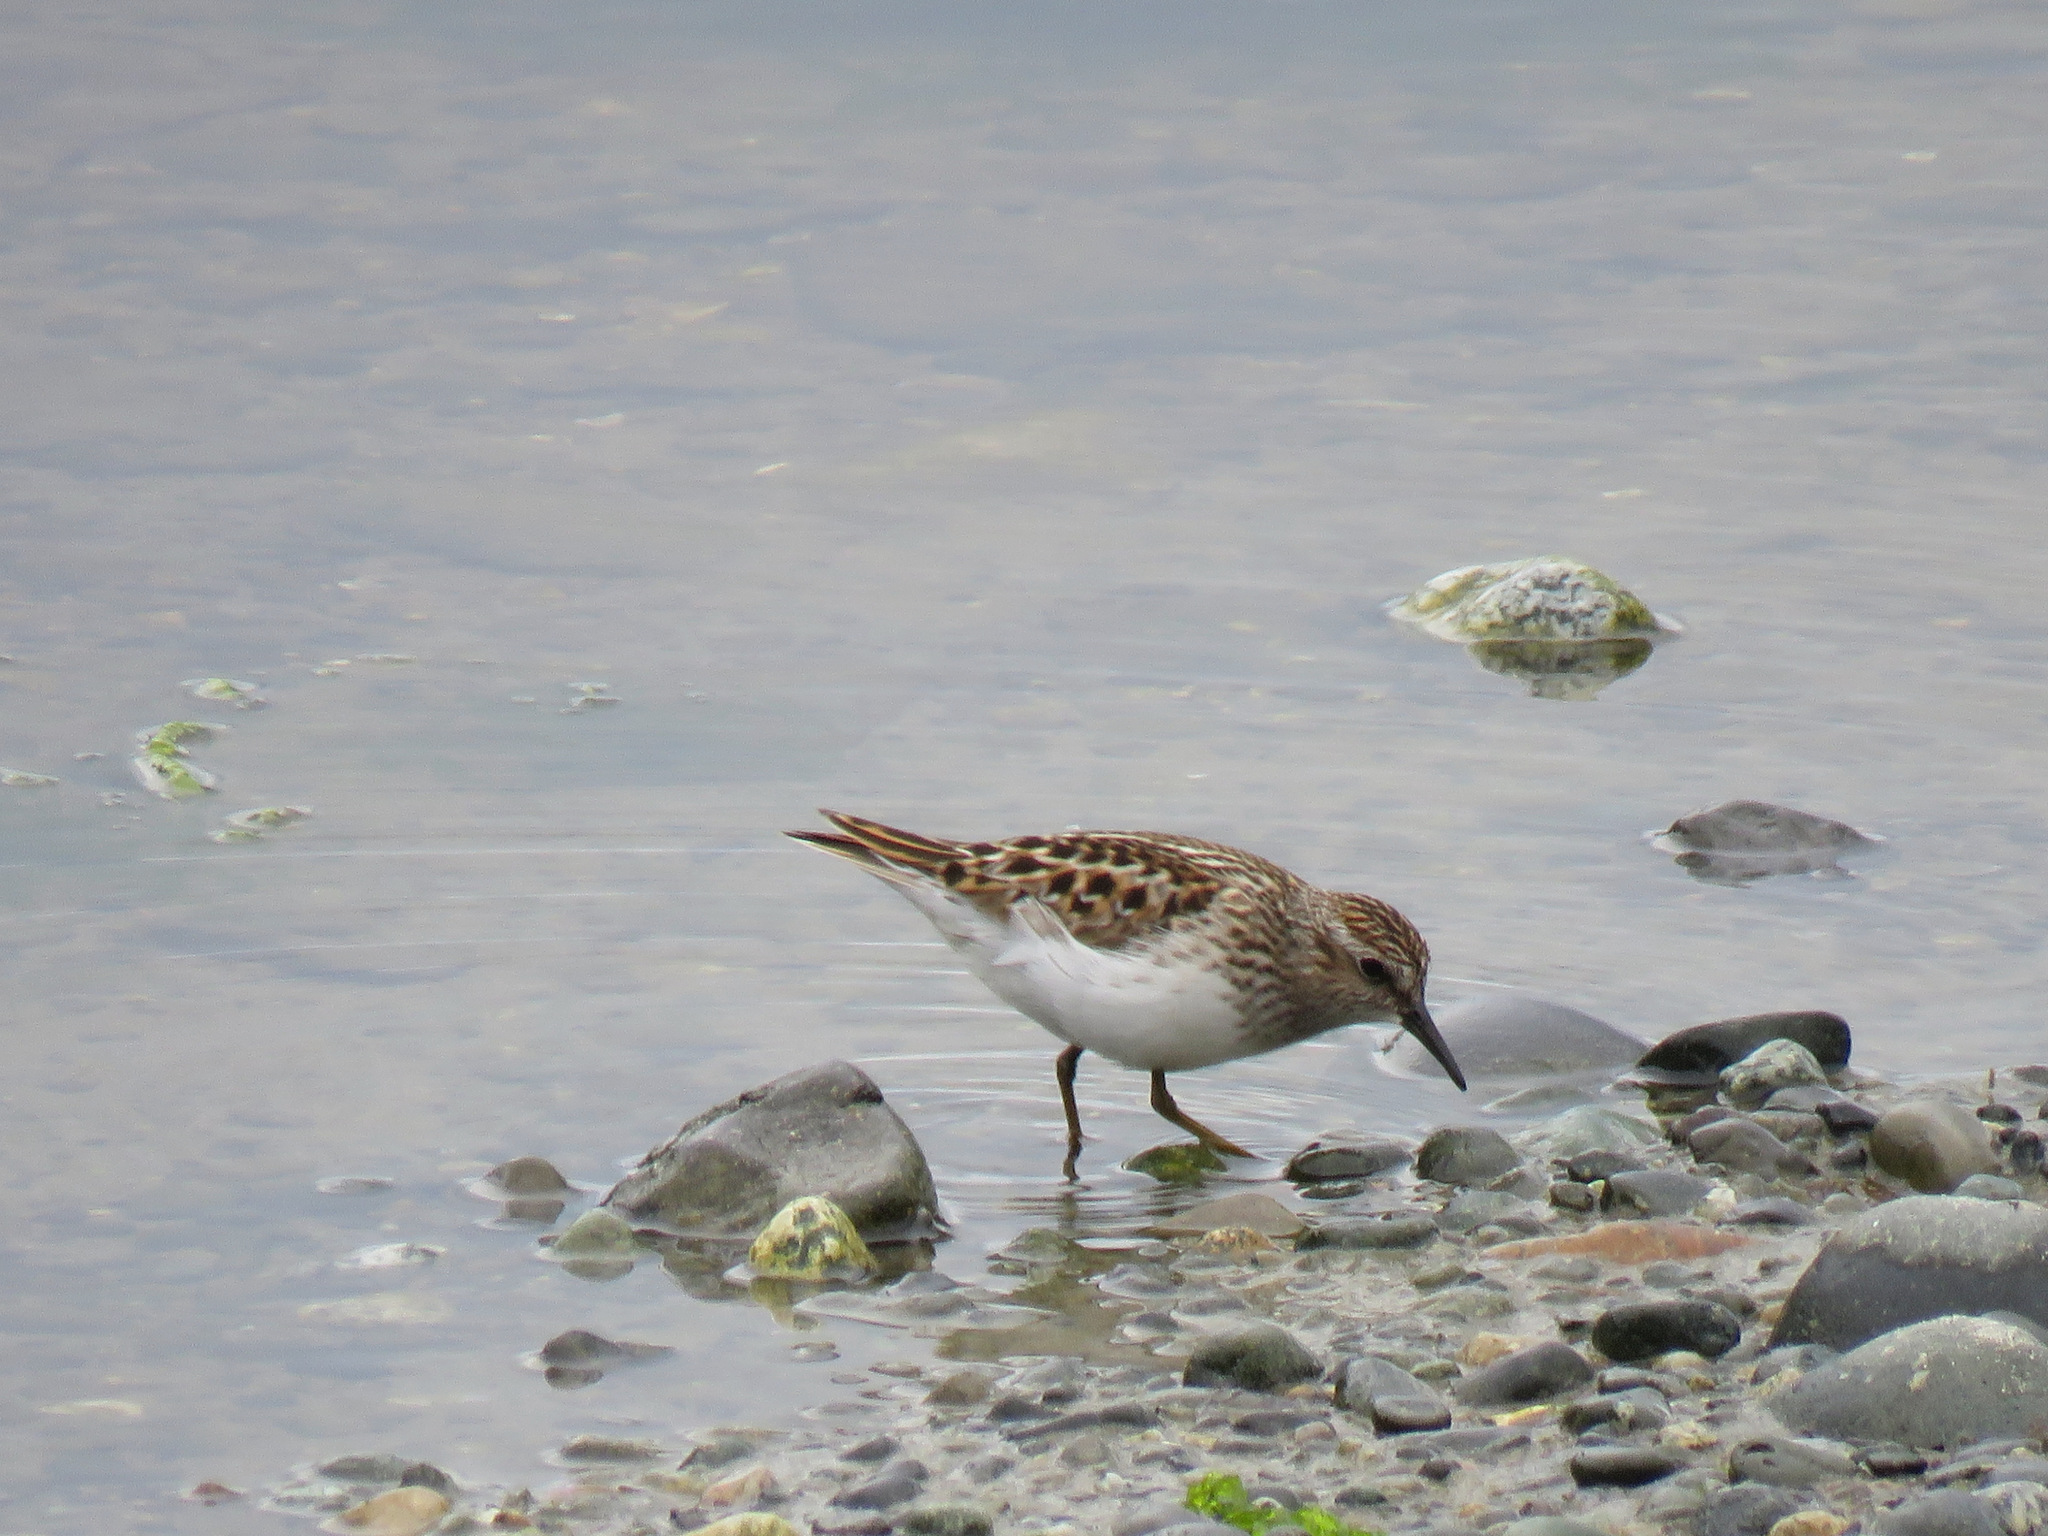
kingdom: Animalia
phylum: Chordata
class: Aves
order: Charadriiformes
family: Scolopacidae
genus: Calidris
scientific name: Calidris minutilla
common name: Least sandpiper
